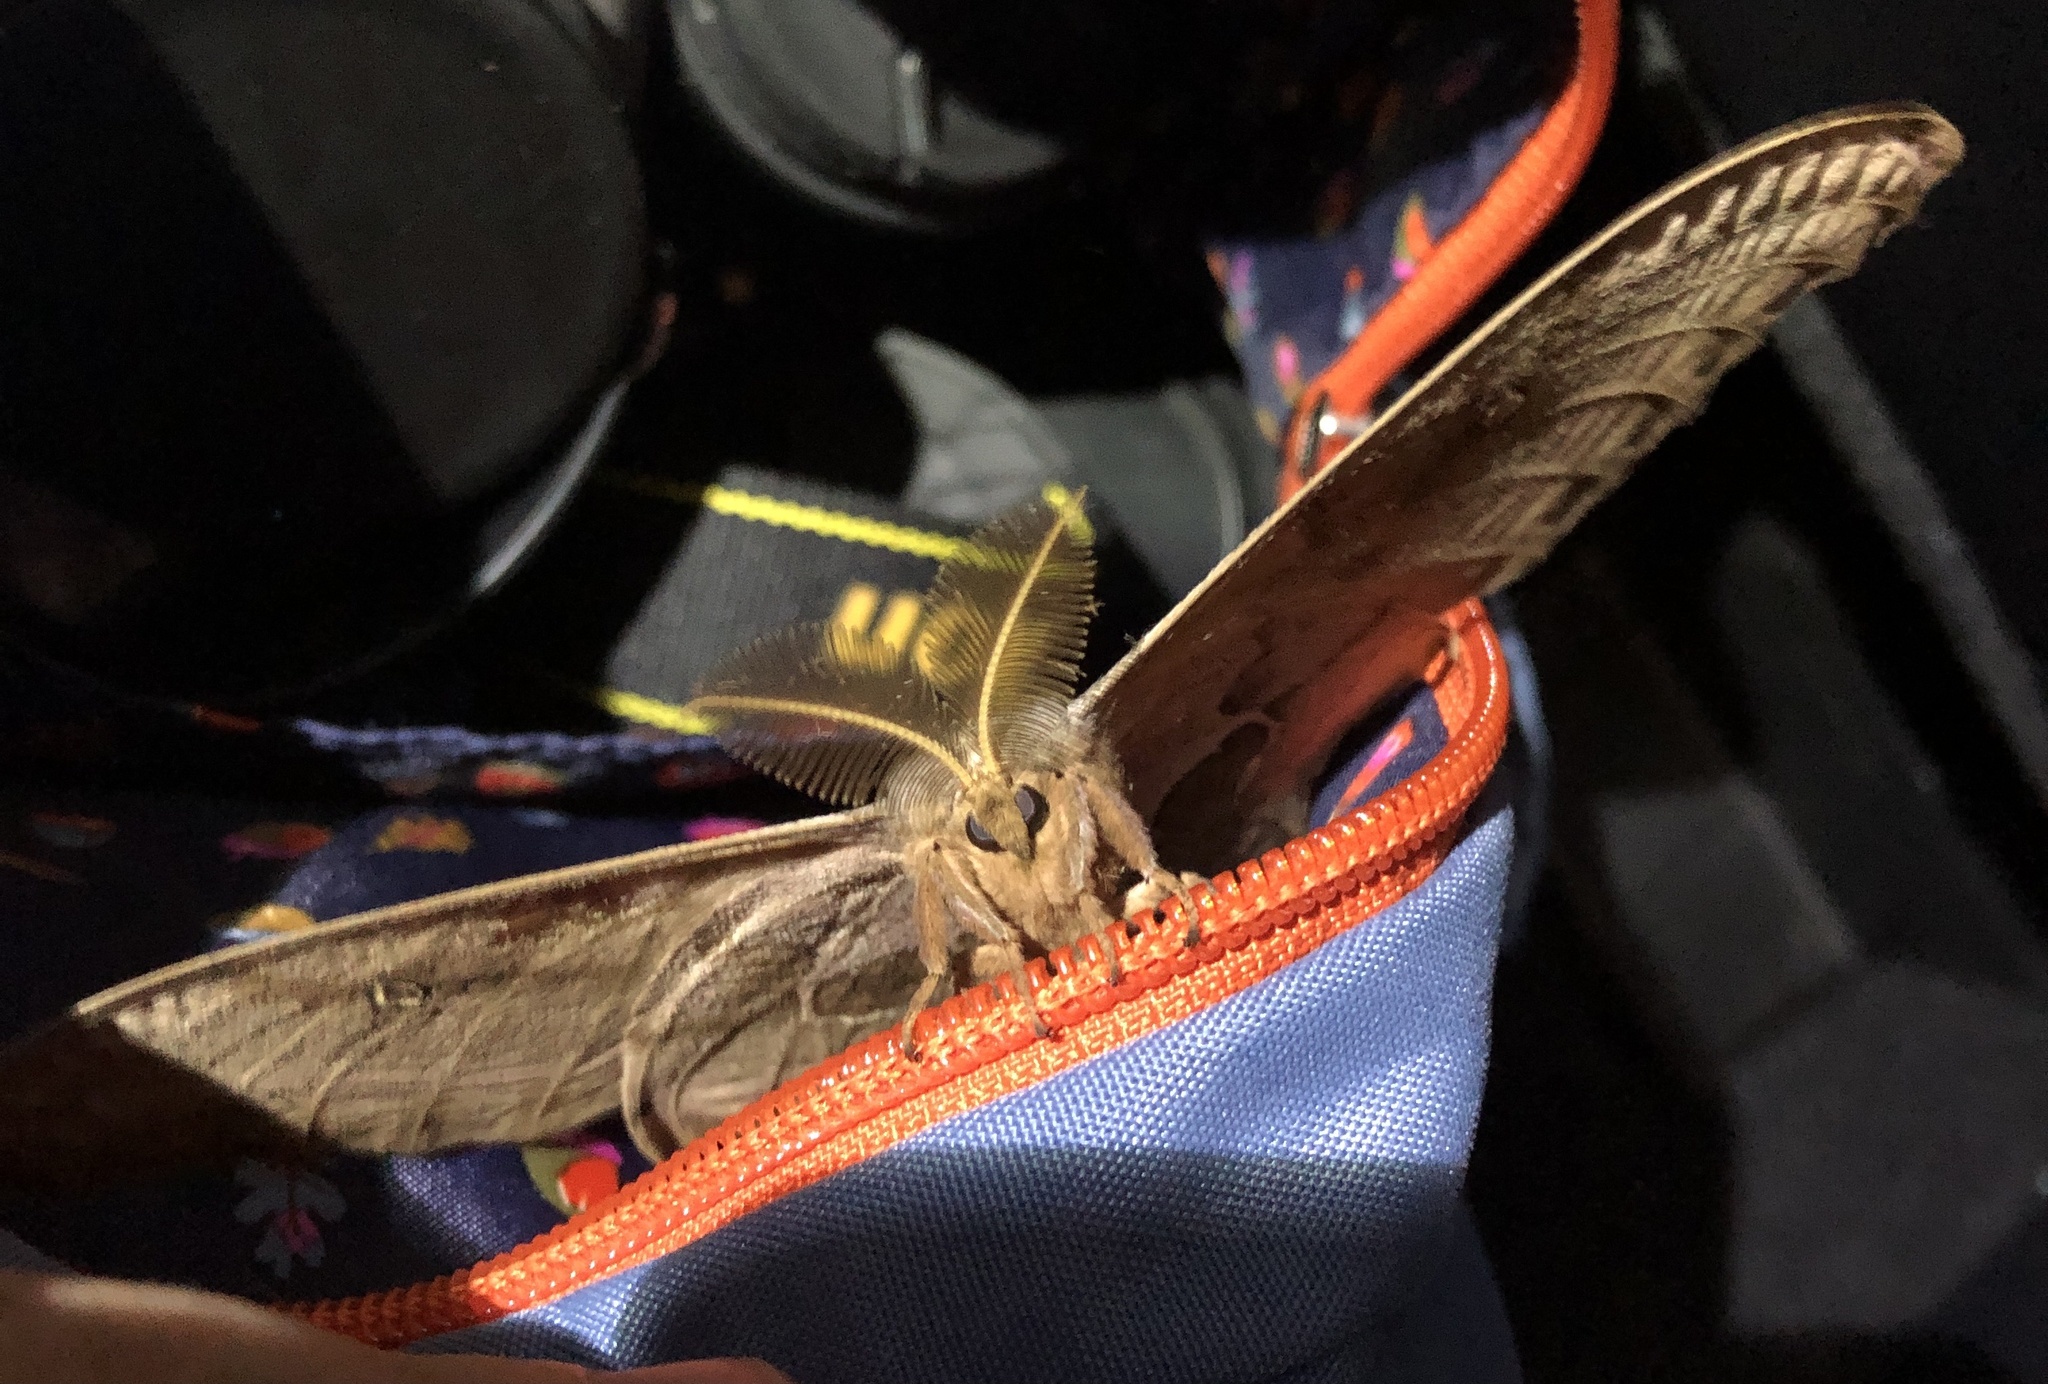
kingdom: Animalia
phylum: Arthropoda
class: Insecta
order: Lepidoptera
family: Saturniidae
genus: Antheraea
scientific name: Antheraea polyphemus
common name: Polyphemus moth
